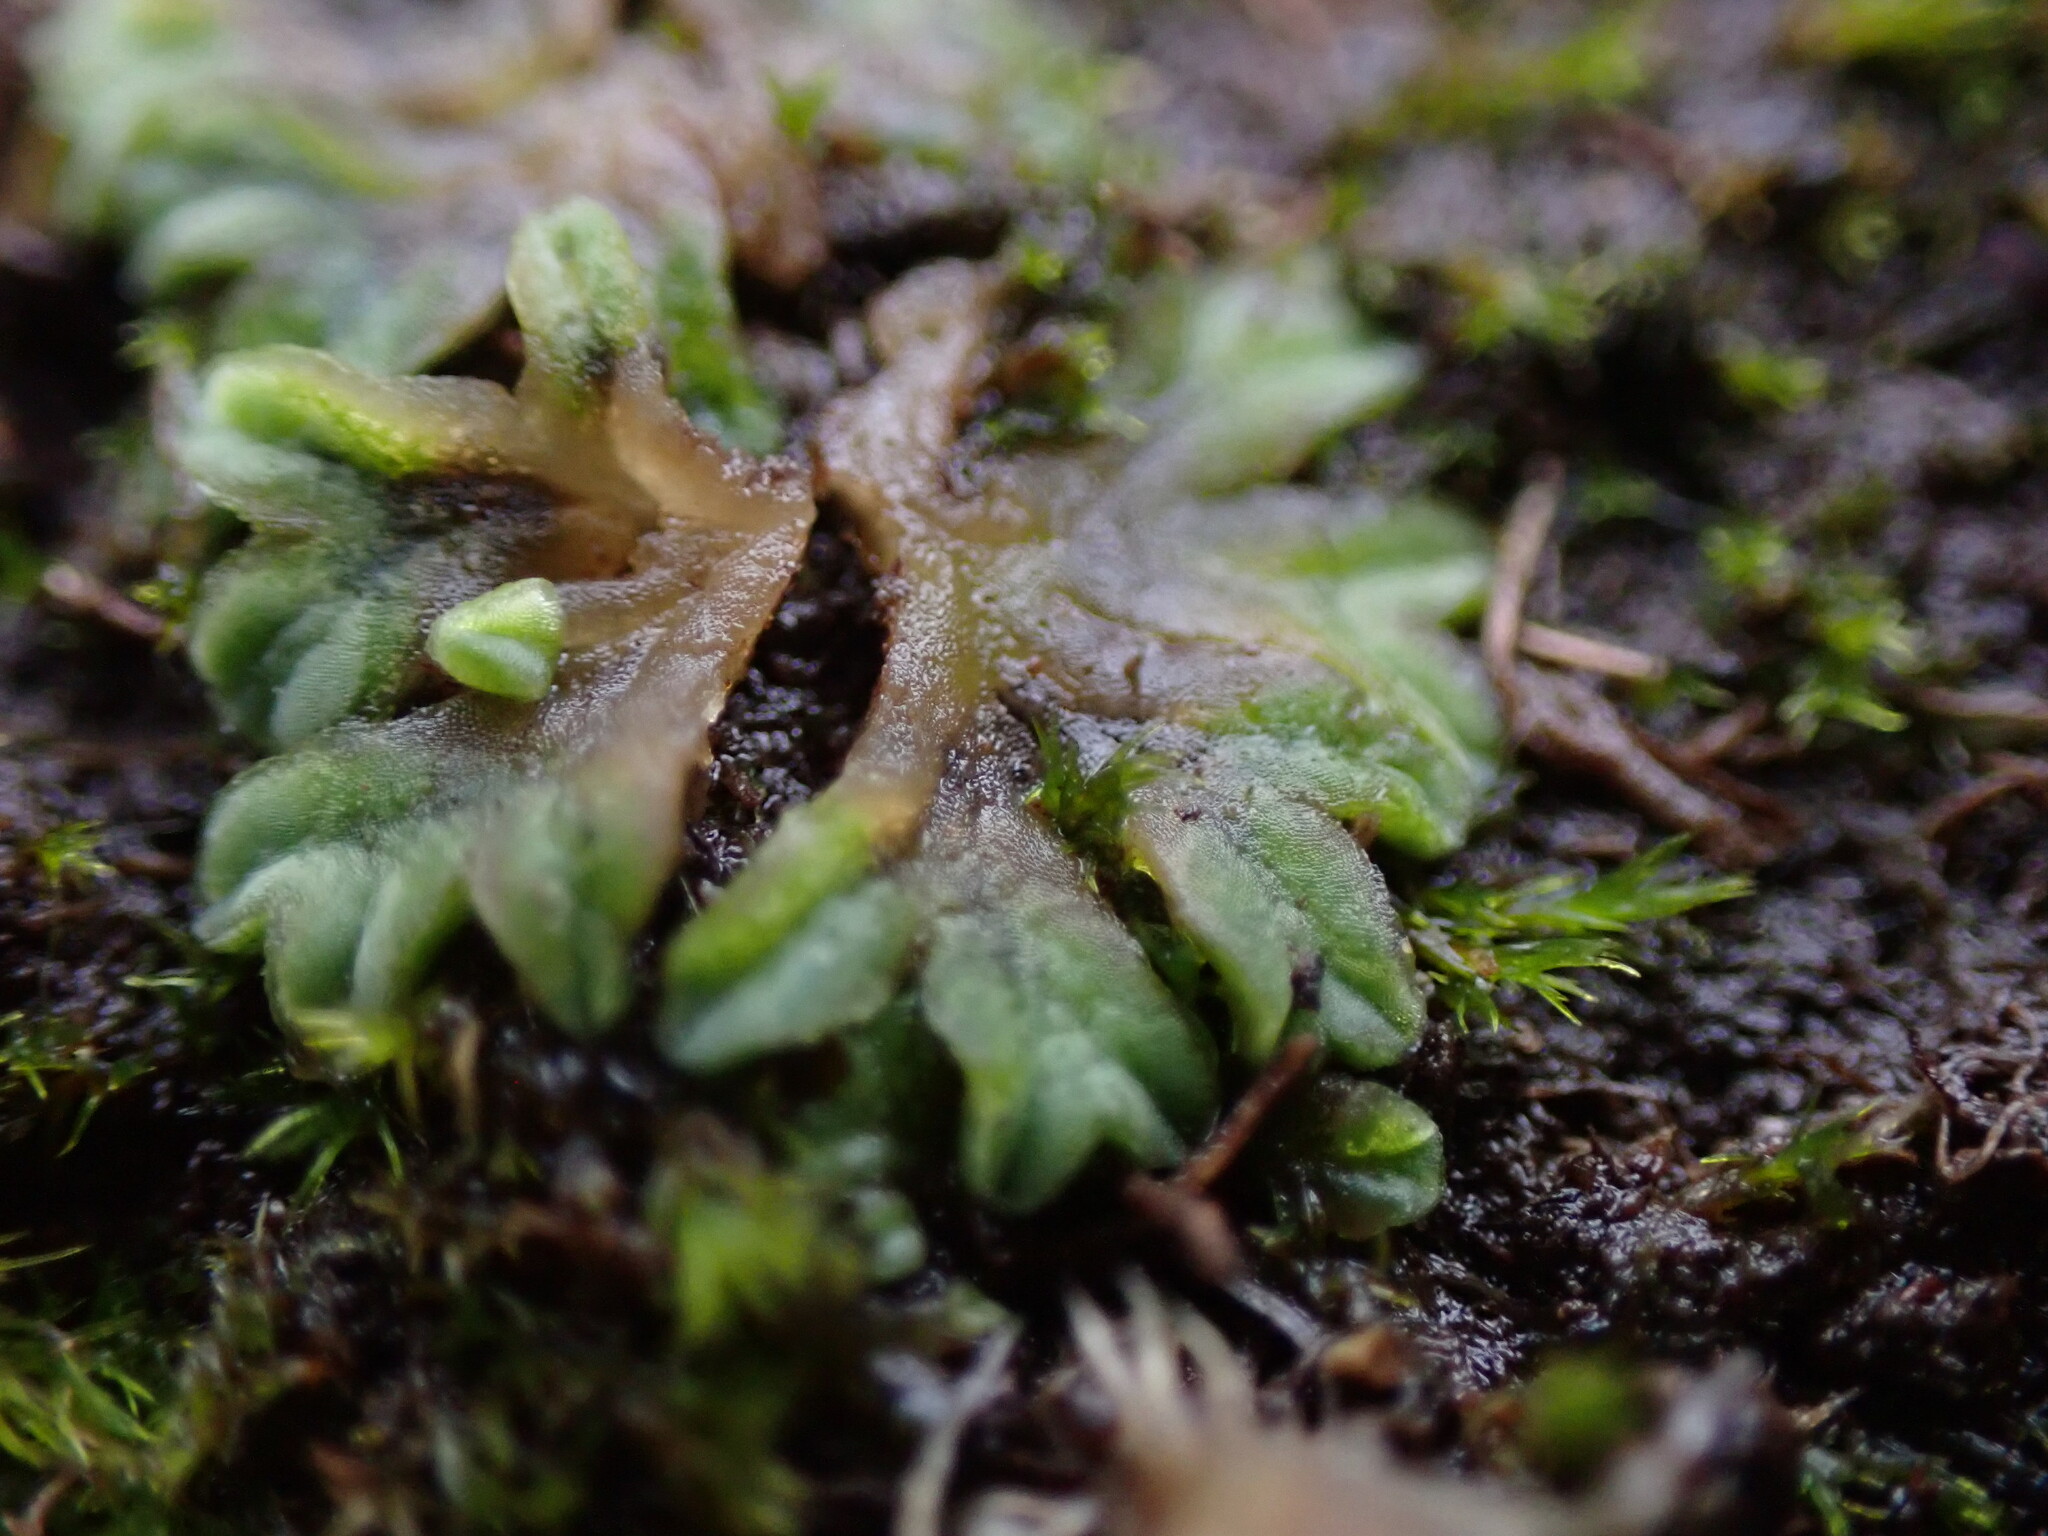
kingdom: Plantae
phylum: Marchantiophyta
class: Marchantiopsida
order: Marchantiales
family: Ricciaceae
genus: Riccia
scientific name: Riccia sorocarpa
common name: Common crystalwort
